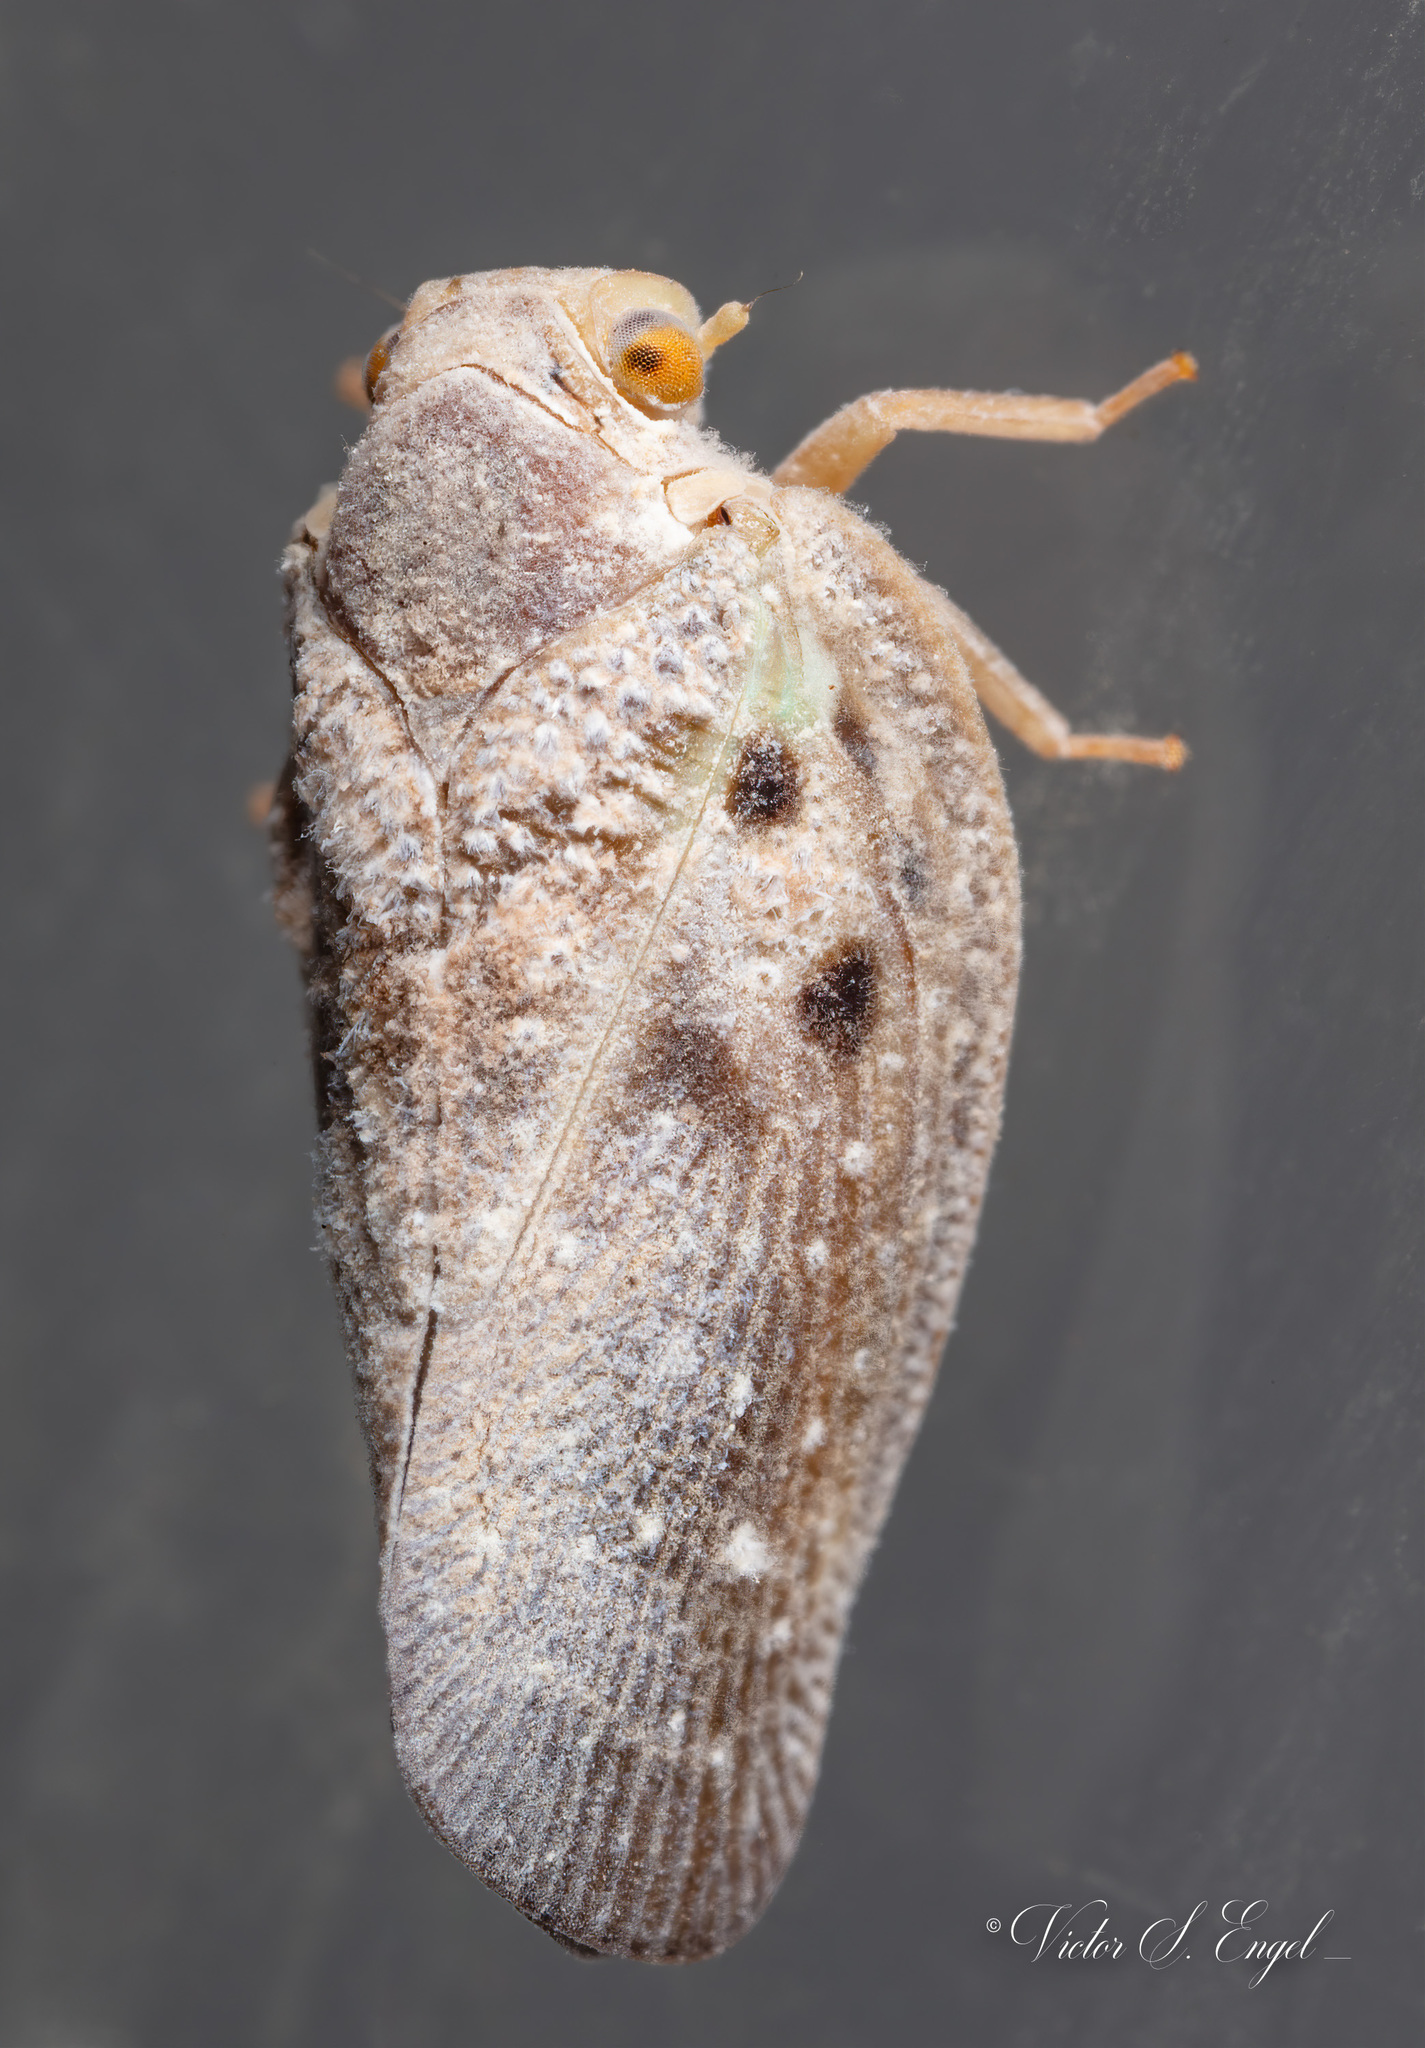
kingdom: Animalia
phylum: Arthropoda
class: Insecta
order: Hemiptera
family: Flatidae
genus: Metcalfa
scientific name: Metcalfa pruinosa
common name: Citrus flatid planthopper
